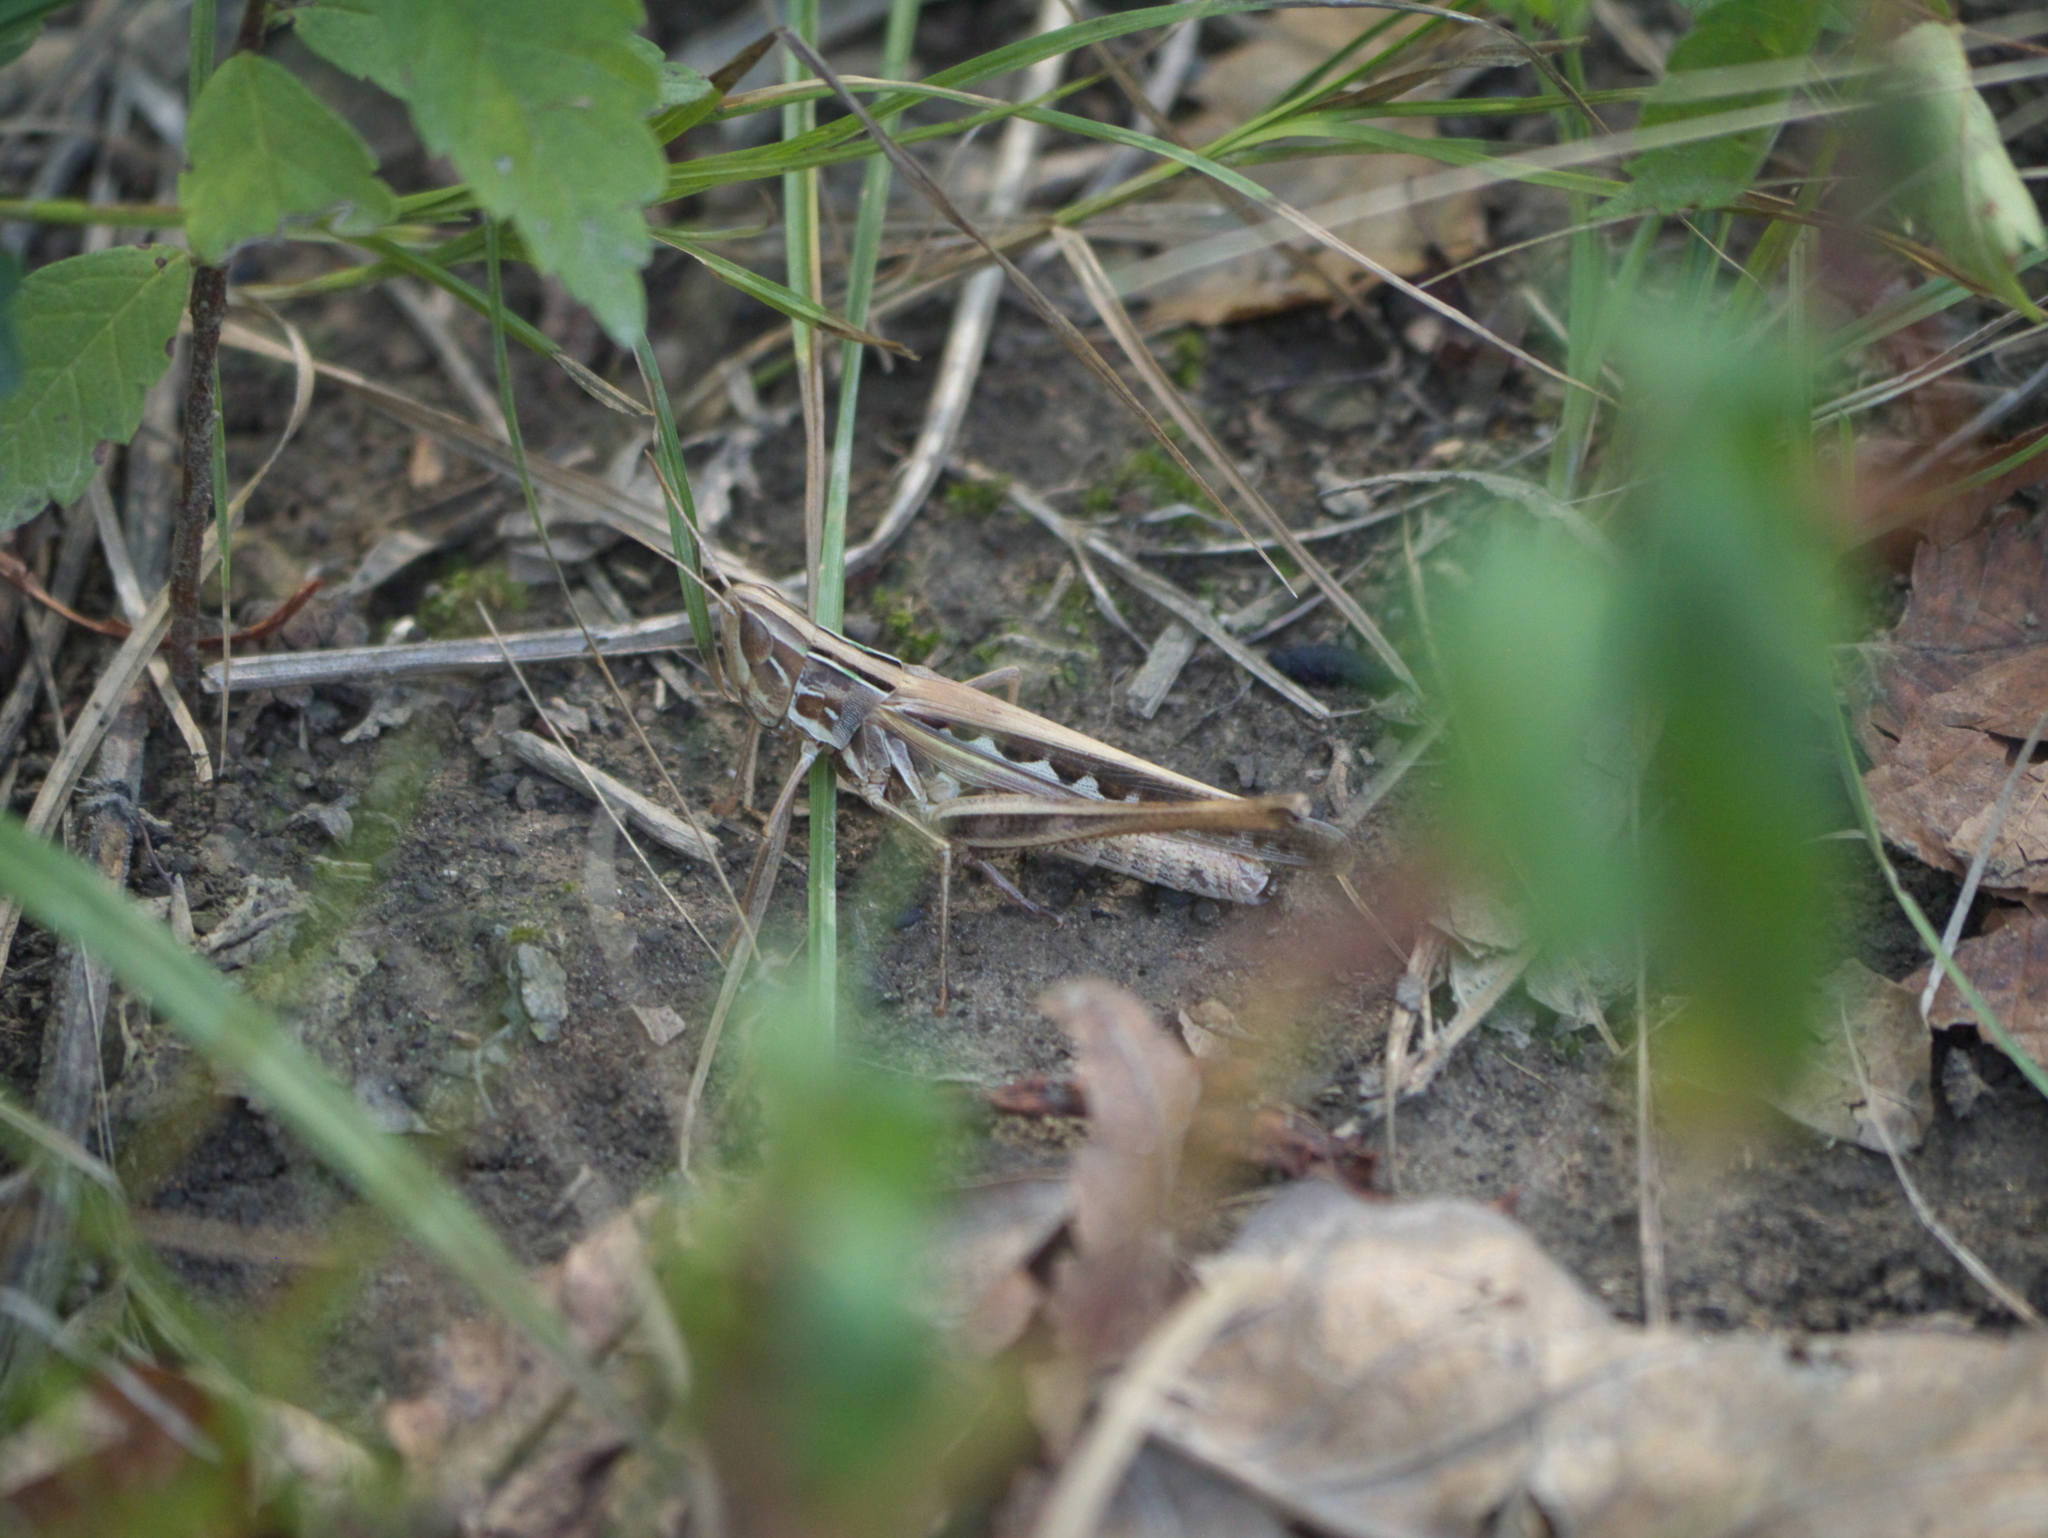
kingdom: Animalia
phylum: Arthropoda
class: Insecta
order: Orthoptera
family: Acrididae
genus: Syrbula
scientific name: Syrbula admirabilis
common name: Handsome grasshopper
